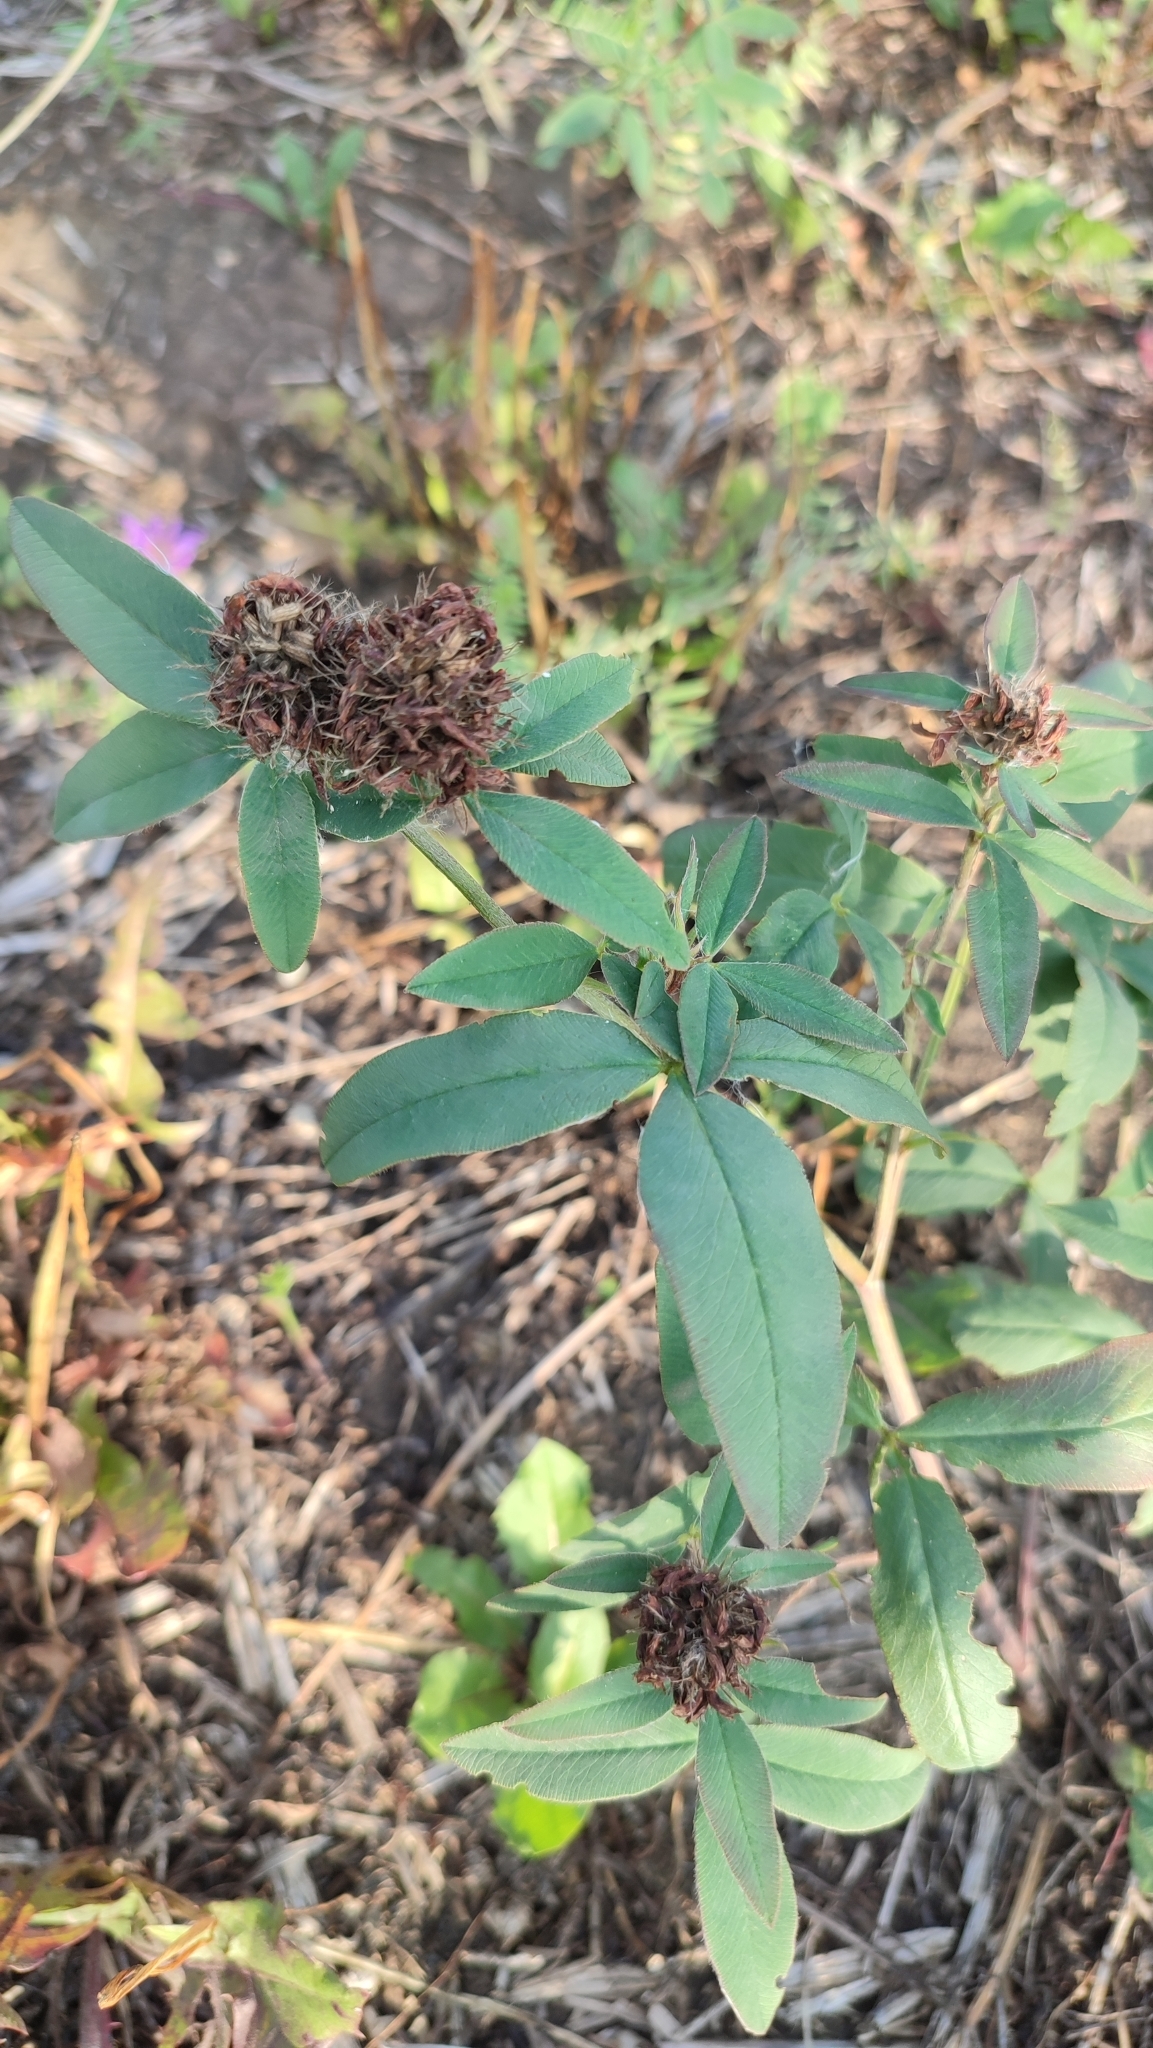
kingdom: Plantae
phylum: Tracheophyta
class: Magnoliopsida
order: Fabales
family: Fabaceae
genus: Trifolium
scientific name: Trifolium medium
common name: Zigzag clover
